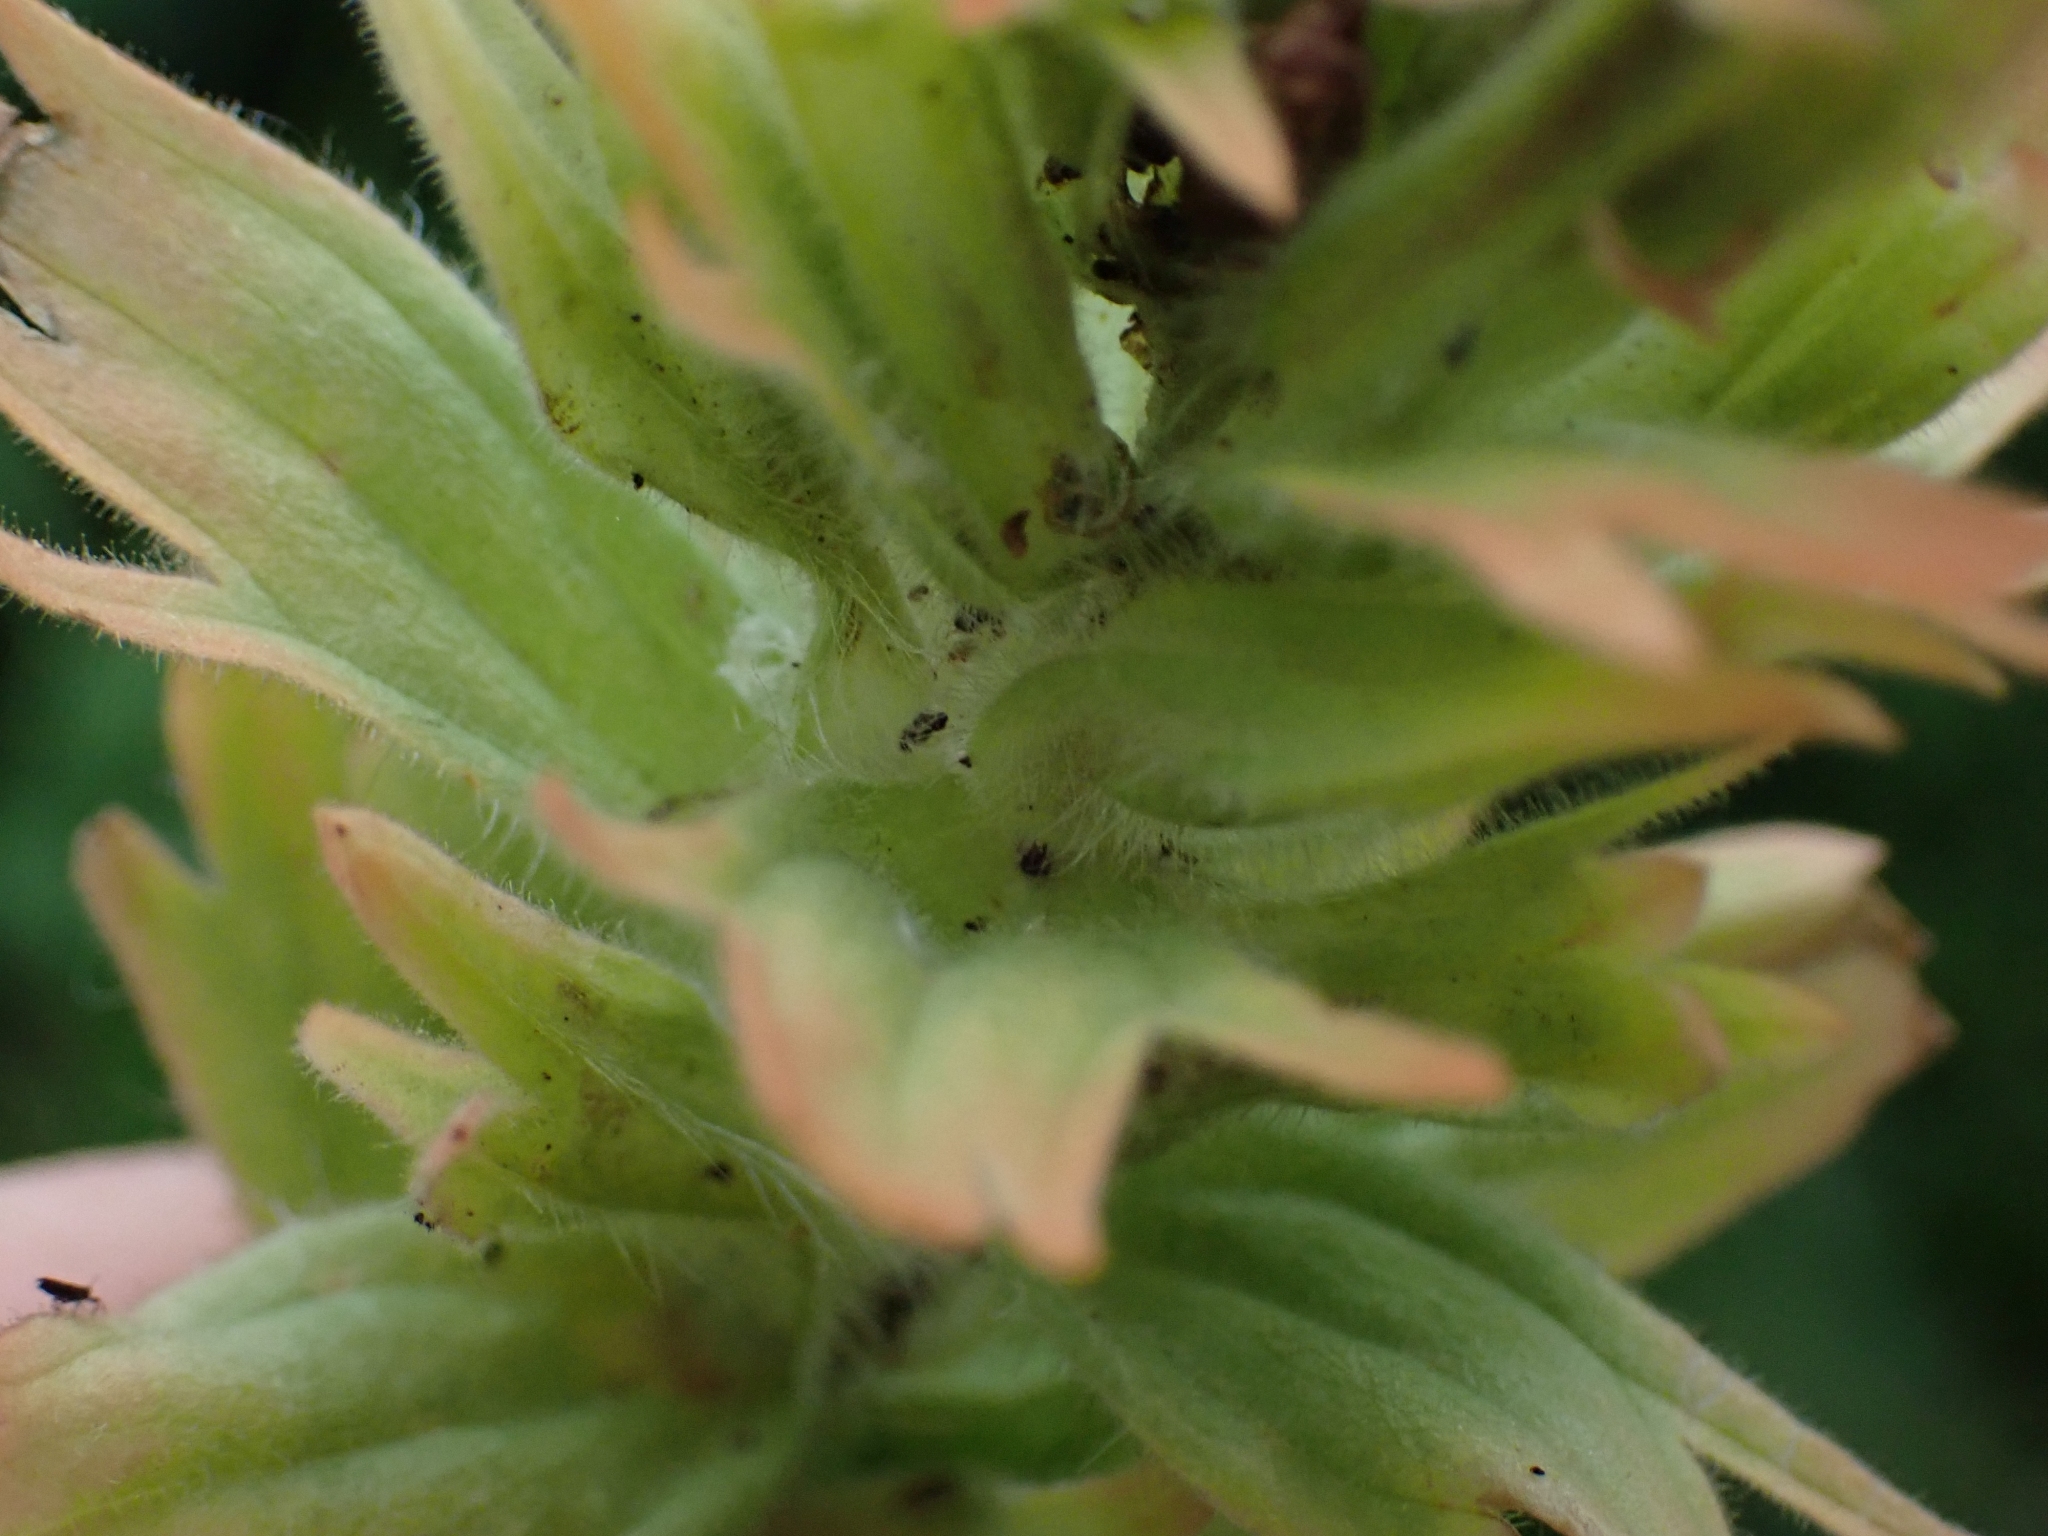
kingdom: Plantae
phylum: Tracheophyta
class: Magnoliopsida
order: Lamiales
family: Orobanchaceae
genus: Castilleja
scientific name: Castilleja miniata
